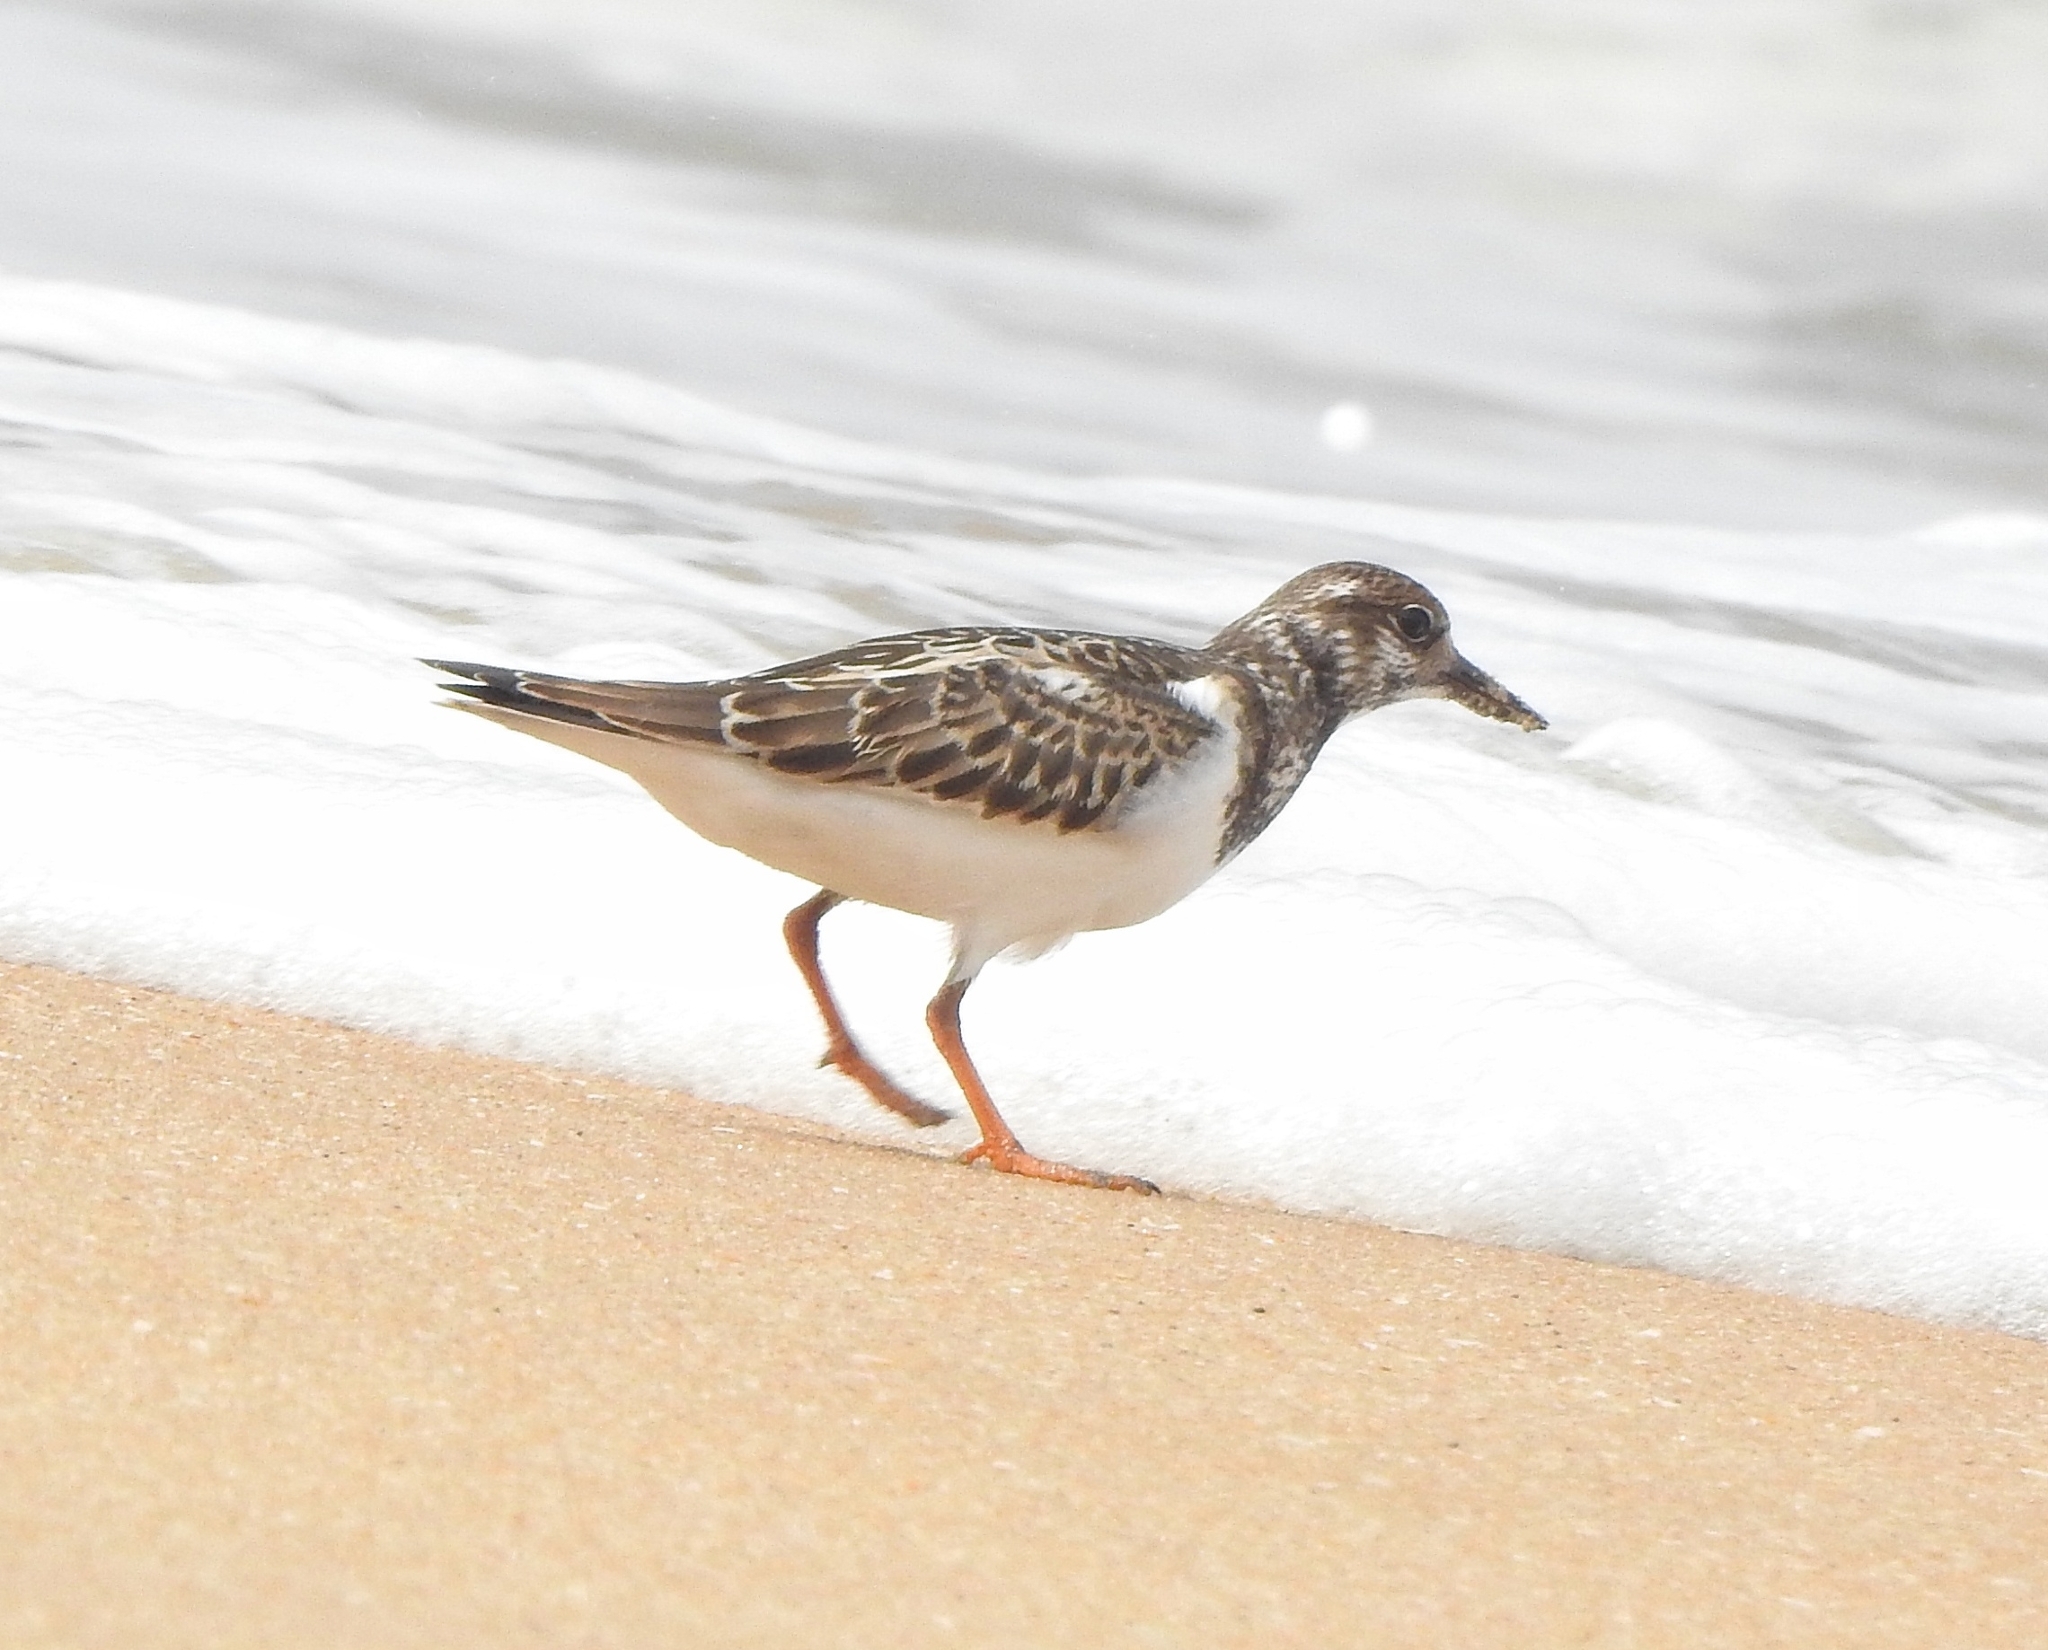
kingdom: Animalia
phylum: Chordata
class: Aves
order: Charadriiformes
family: Scolopacidae
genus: Arenaria
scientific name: Arenaria interpres
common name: Ruddy turnstone
